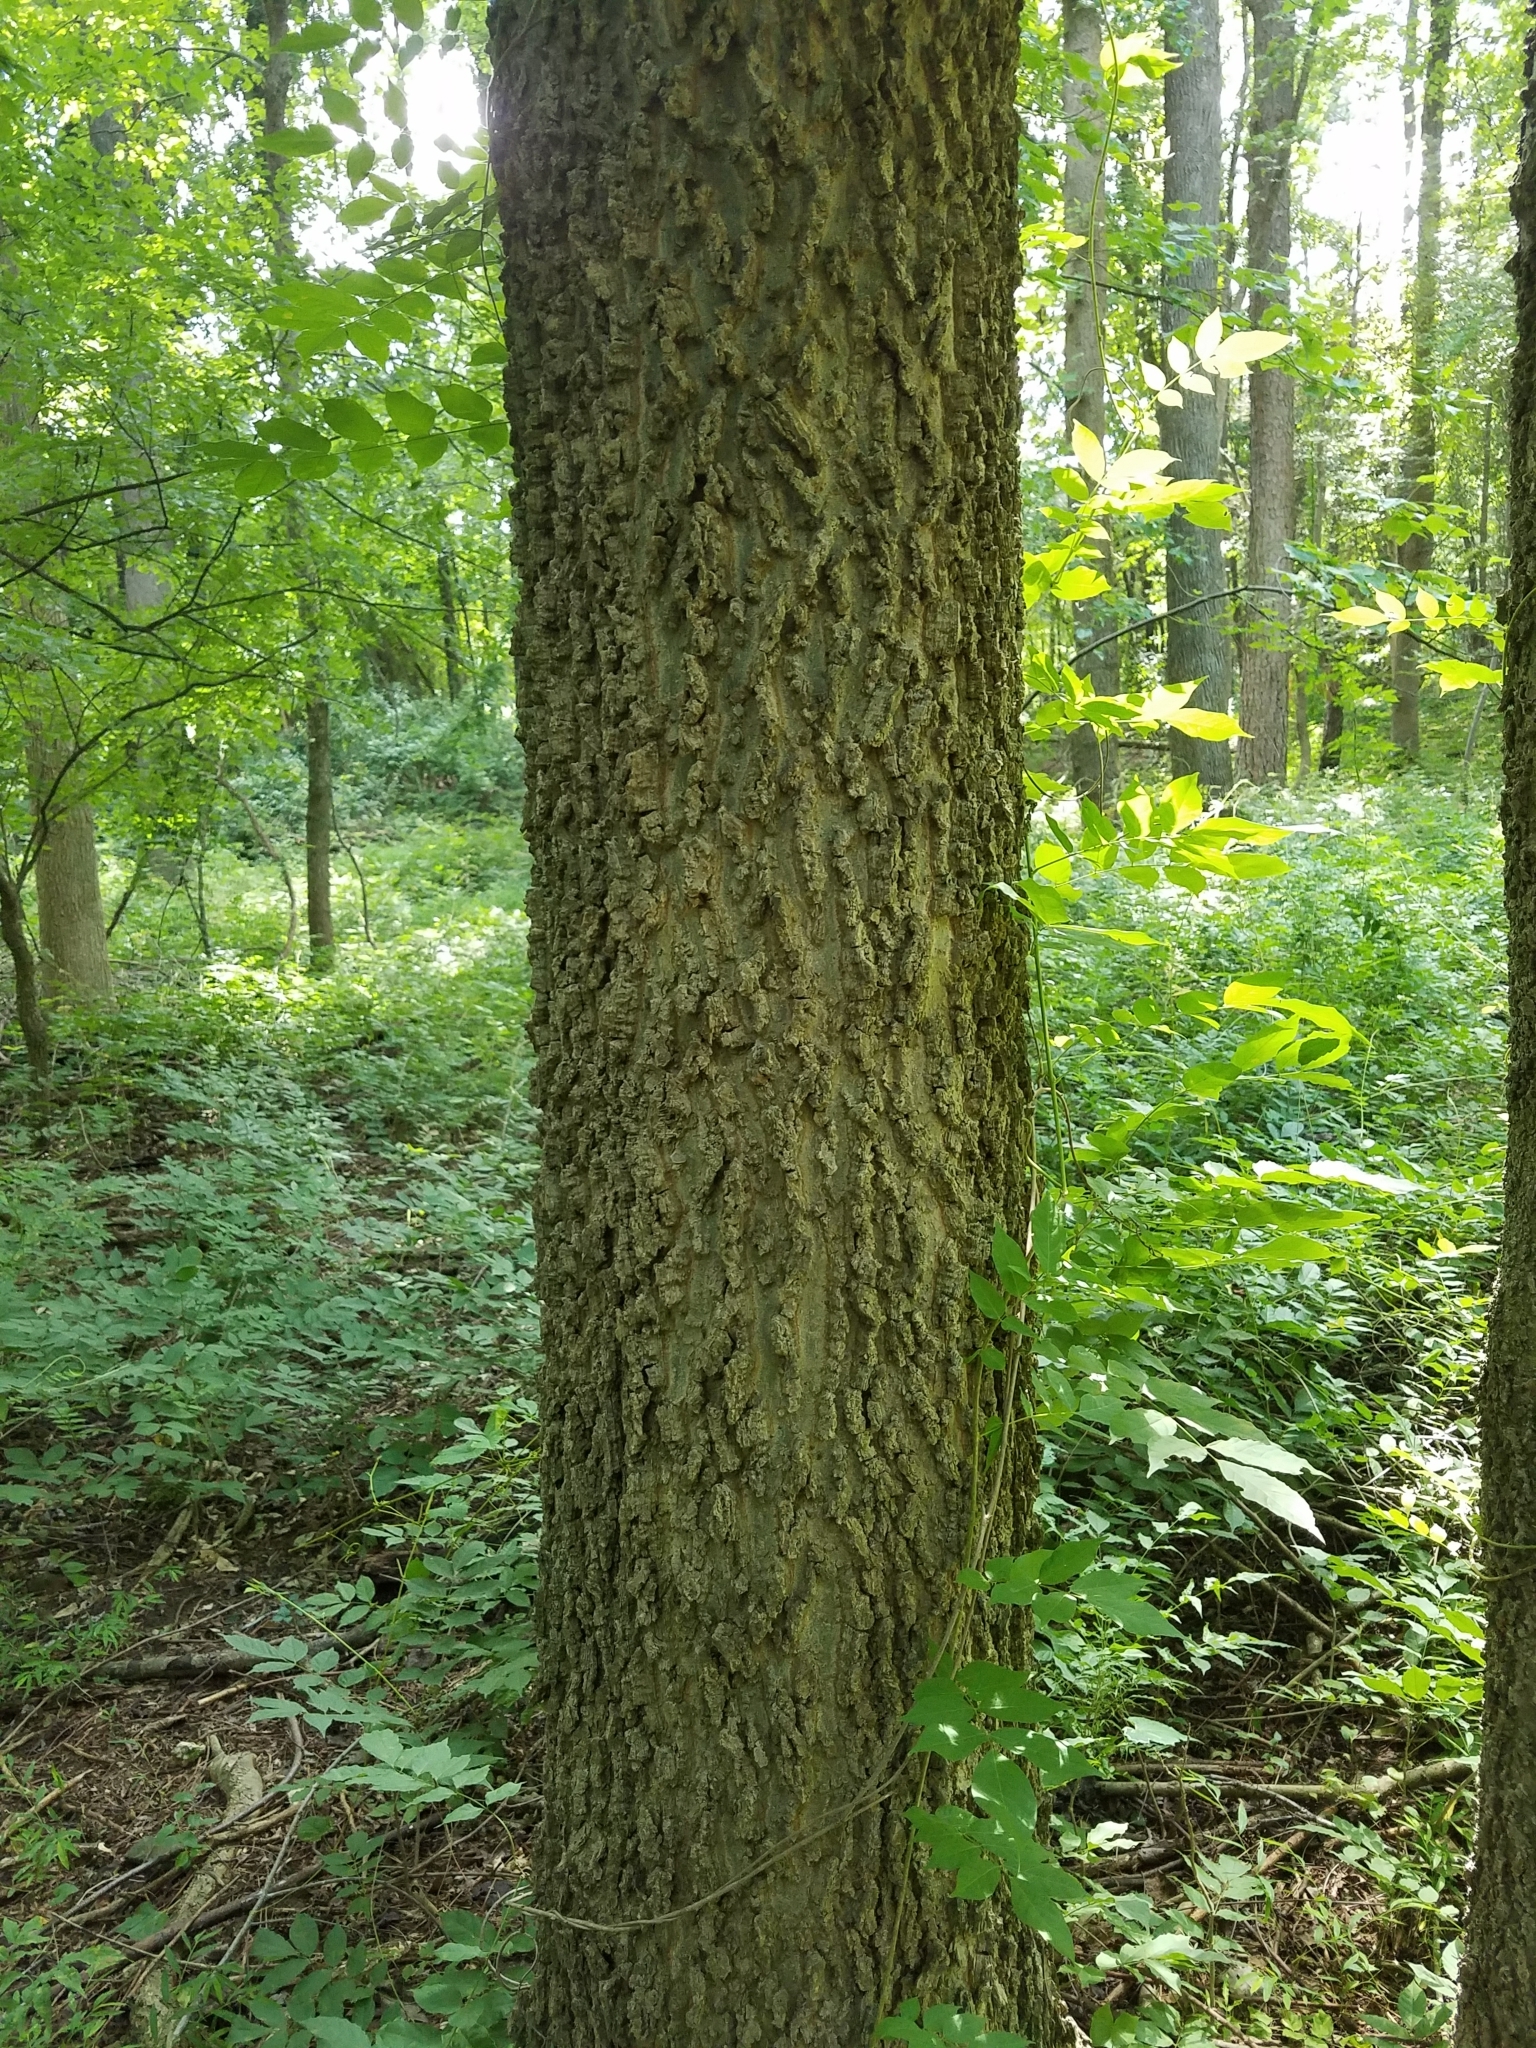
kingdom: Plantae
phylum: Tracheophyta
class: Magnoliopsida
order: Rosales
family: Cannabaceae
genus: Celtis
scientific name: Celtis occidentalis
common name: Common hackberry
